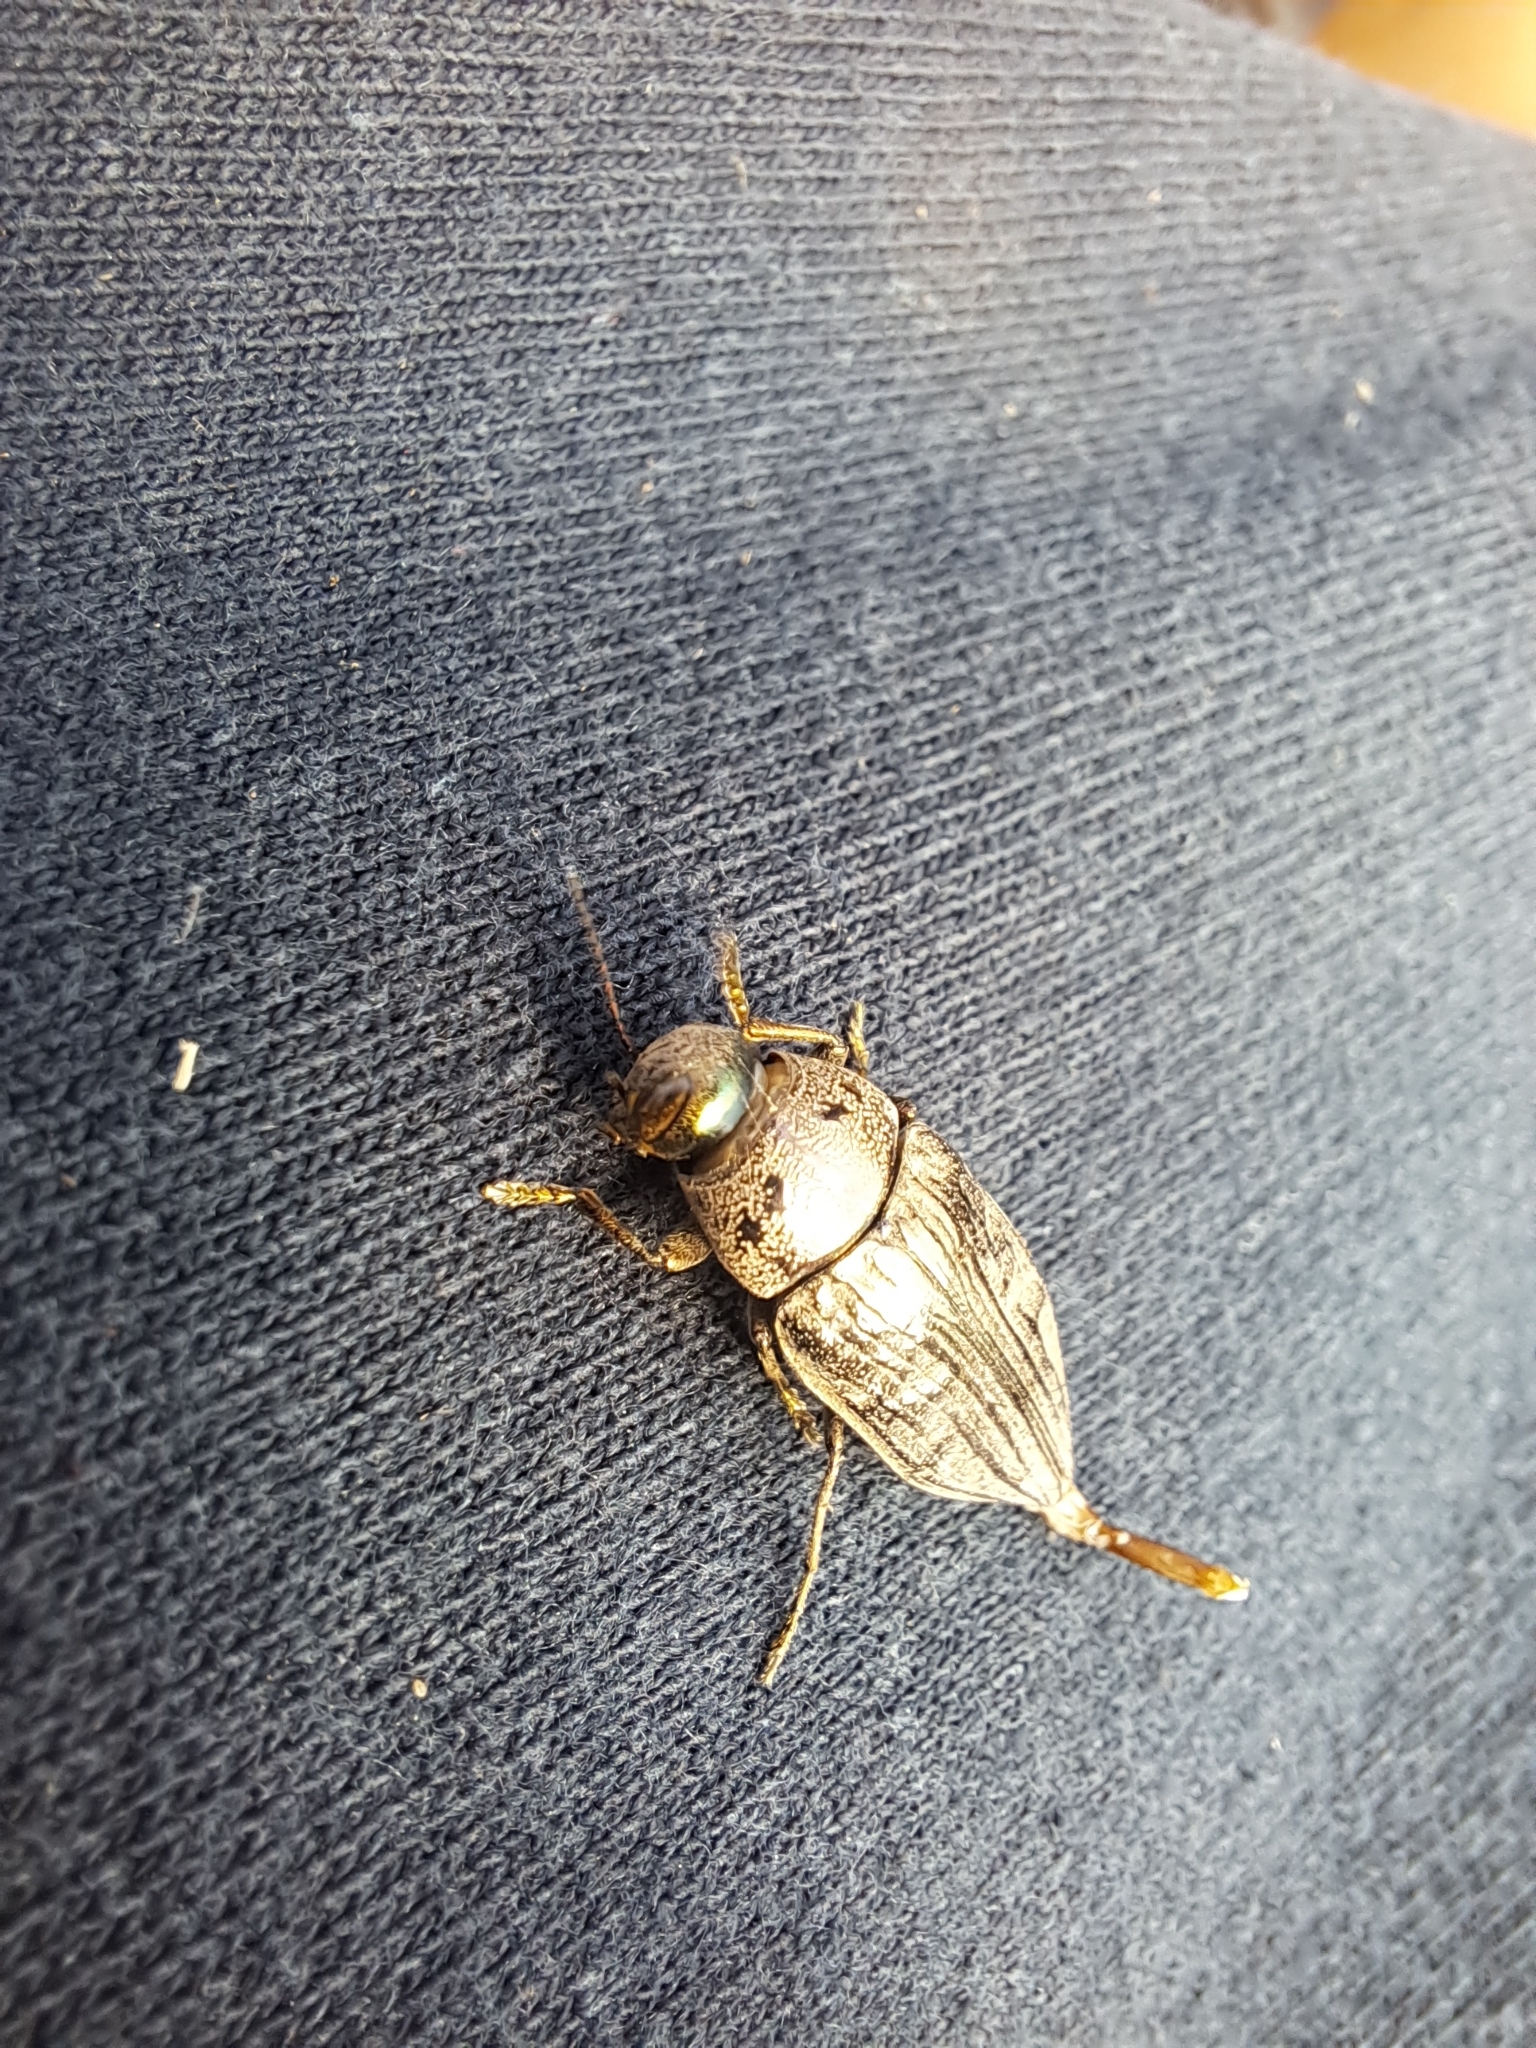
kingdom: Animalia
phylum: Arthropoda
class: Insecta
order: Coleoptera
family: Buprestidae
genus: Buprestis
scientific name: Buprestis maculativentris
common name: Spotted-belly buprestid beetle
